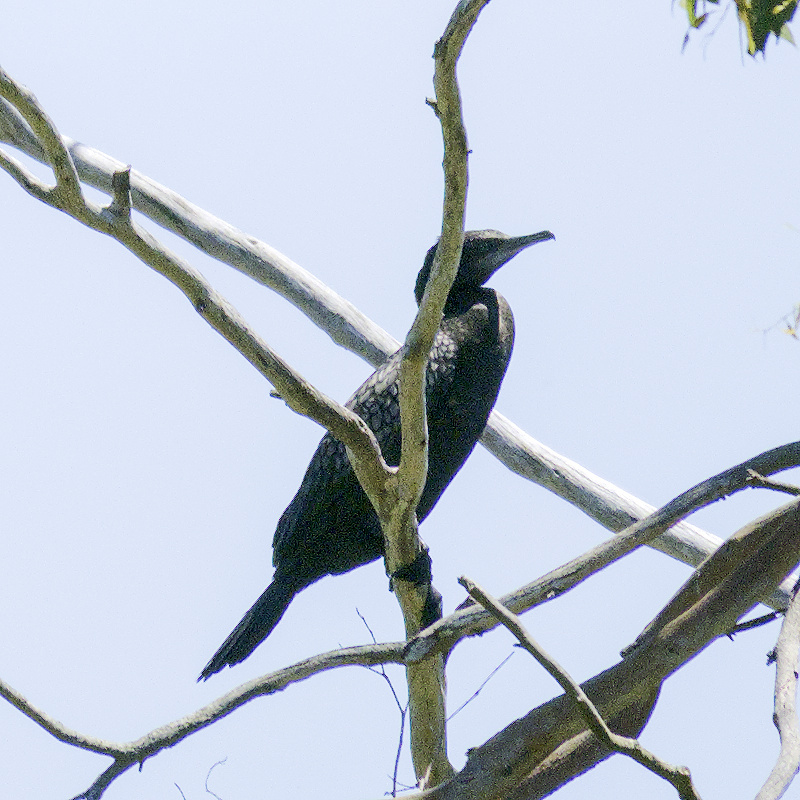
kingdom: Animalia
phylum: Chordata
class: Aves
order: Suliformes
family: Phalacrocoracidae
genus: Phalacrocorax
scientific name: Phalacrocorax sulcirostris
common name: Little black cormorant
